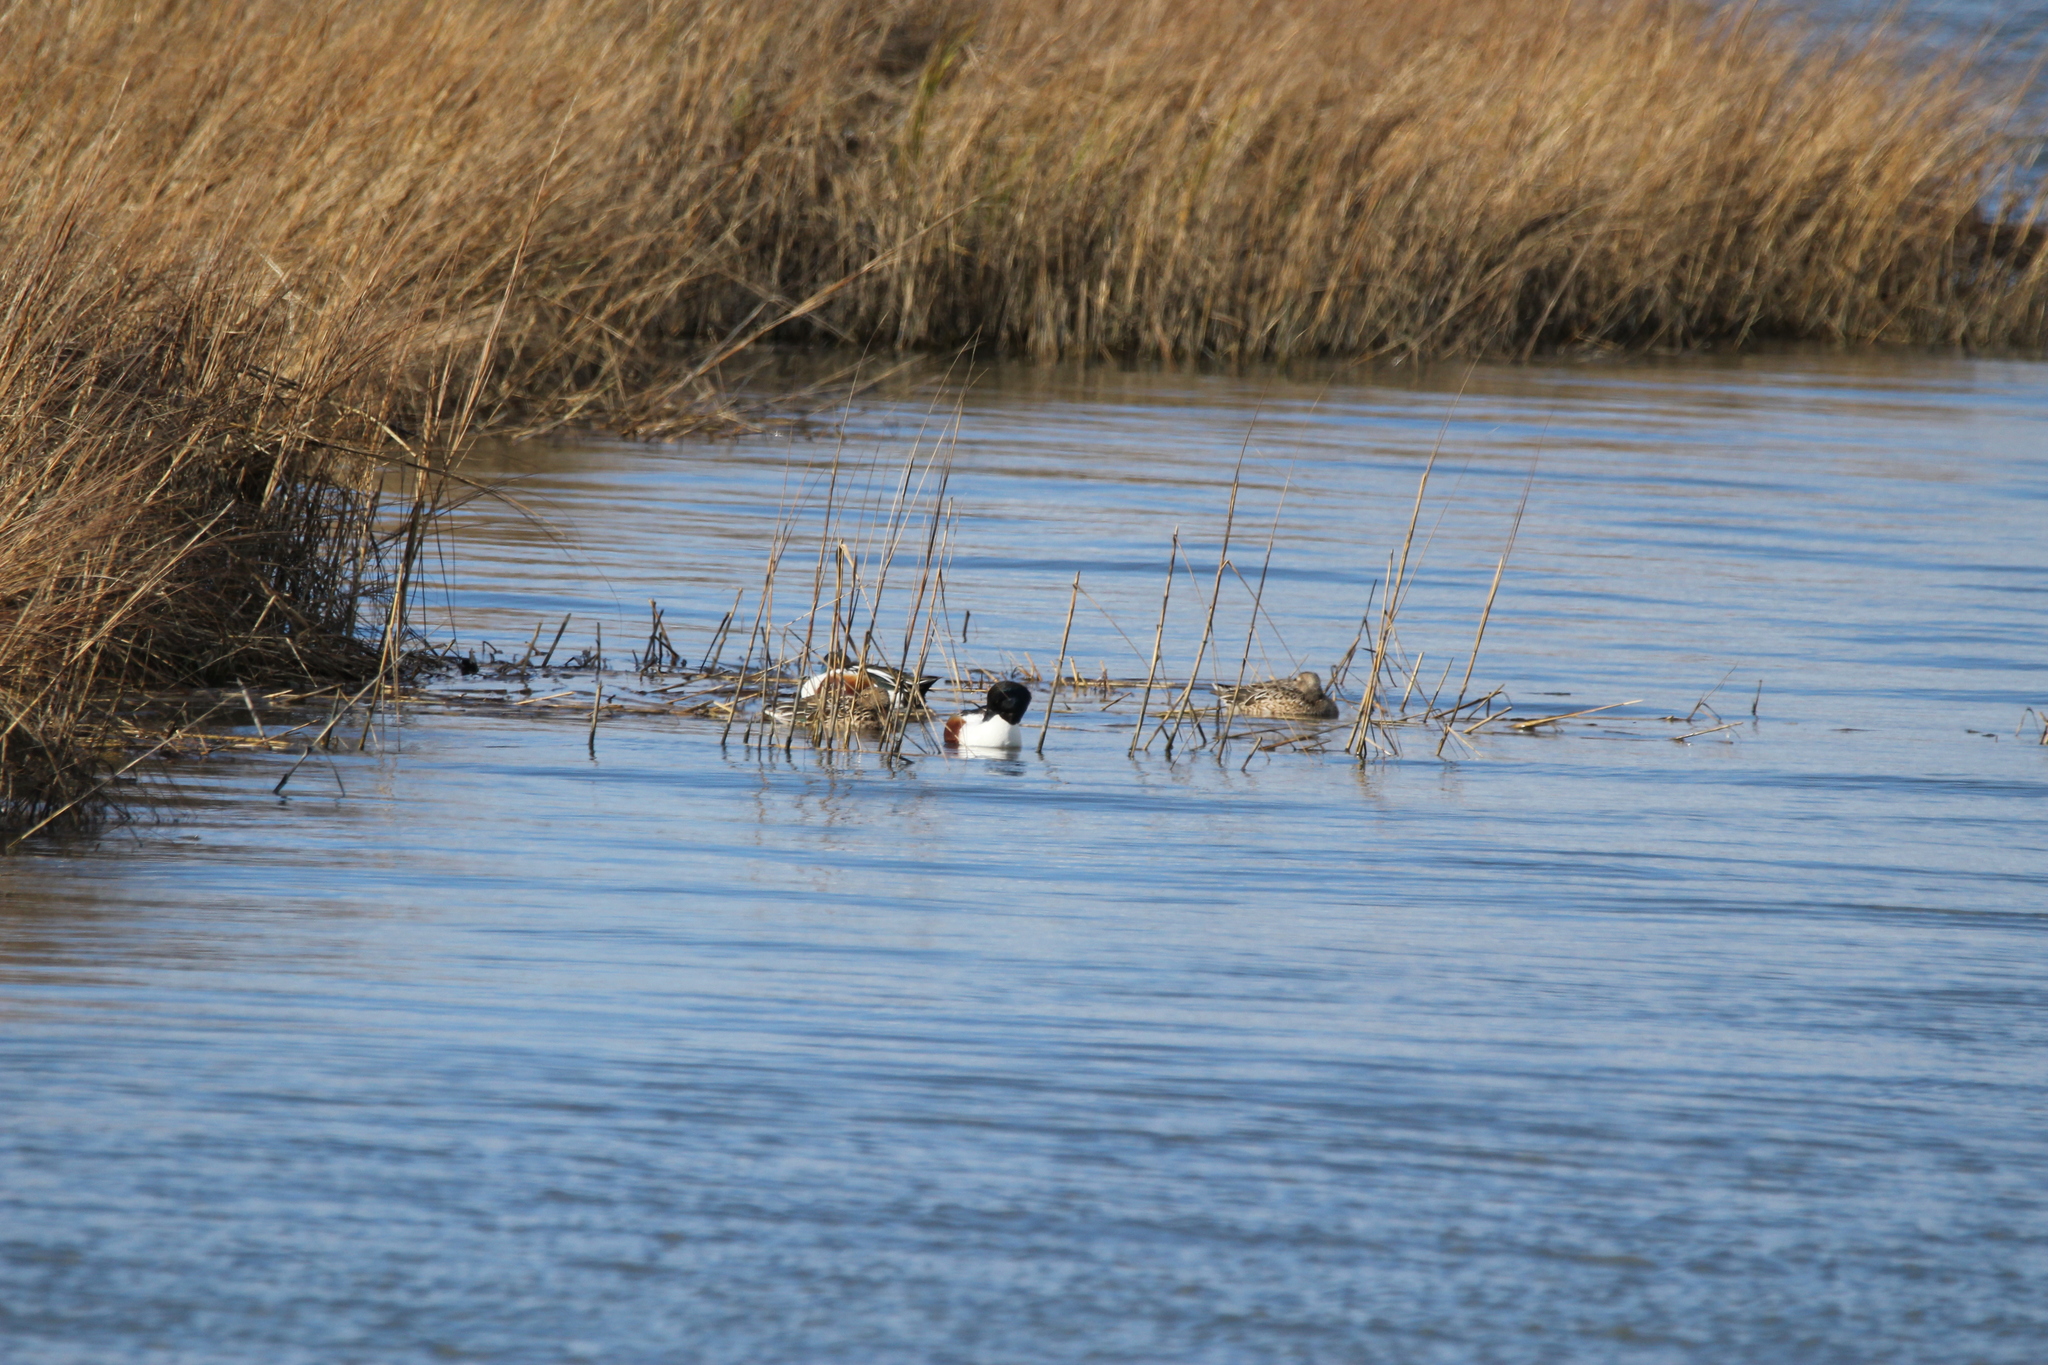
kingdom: Animalia
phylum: Chordata
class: Aves
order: Anseriformes
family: Anatidae
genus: Spatula
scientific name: Spatula clypeata
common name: Northern shoveler
